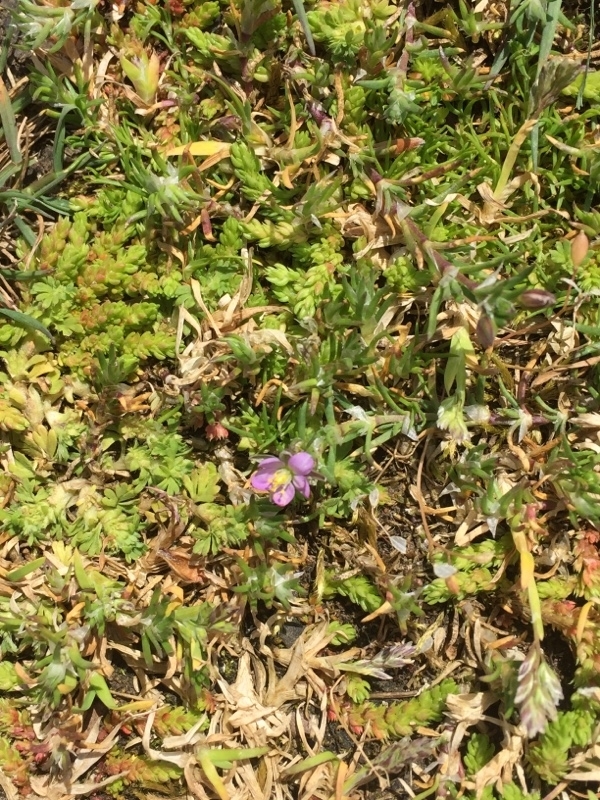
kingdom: Plantae
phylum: Tracheophyta
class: Magnoliopsida
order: Saxifragales
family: Crassulaceae
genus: Crassula
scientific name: Crassula tillaea
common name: Mossy stonecrop
